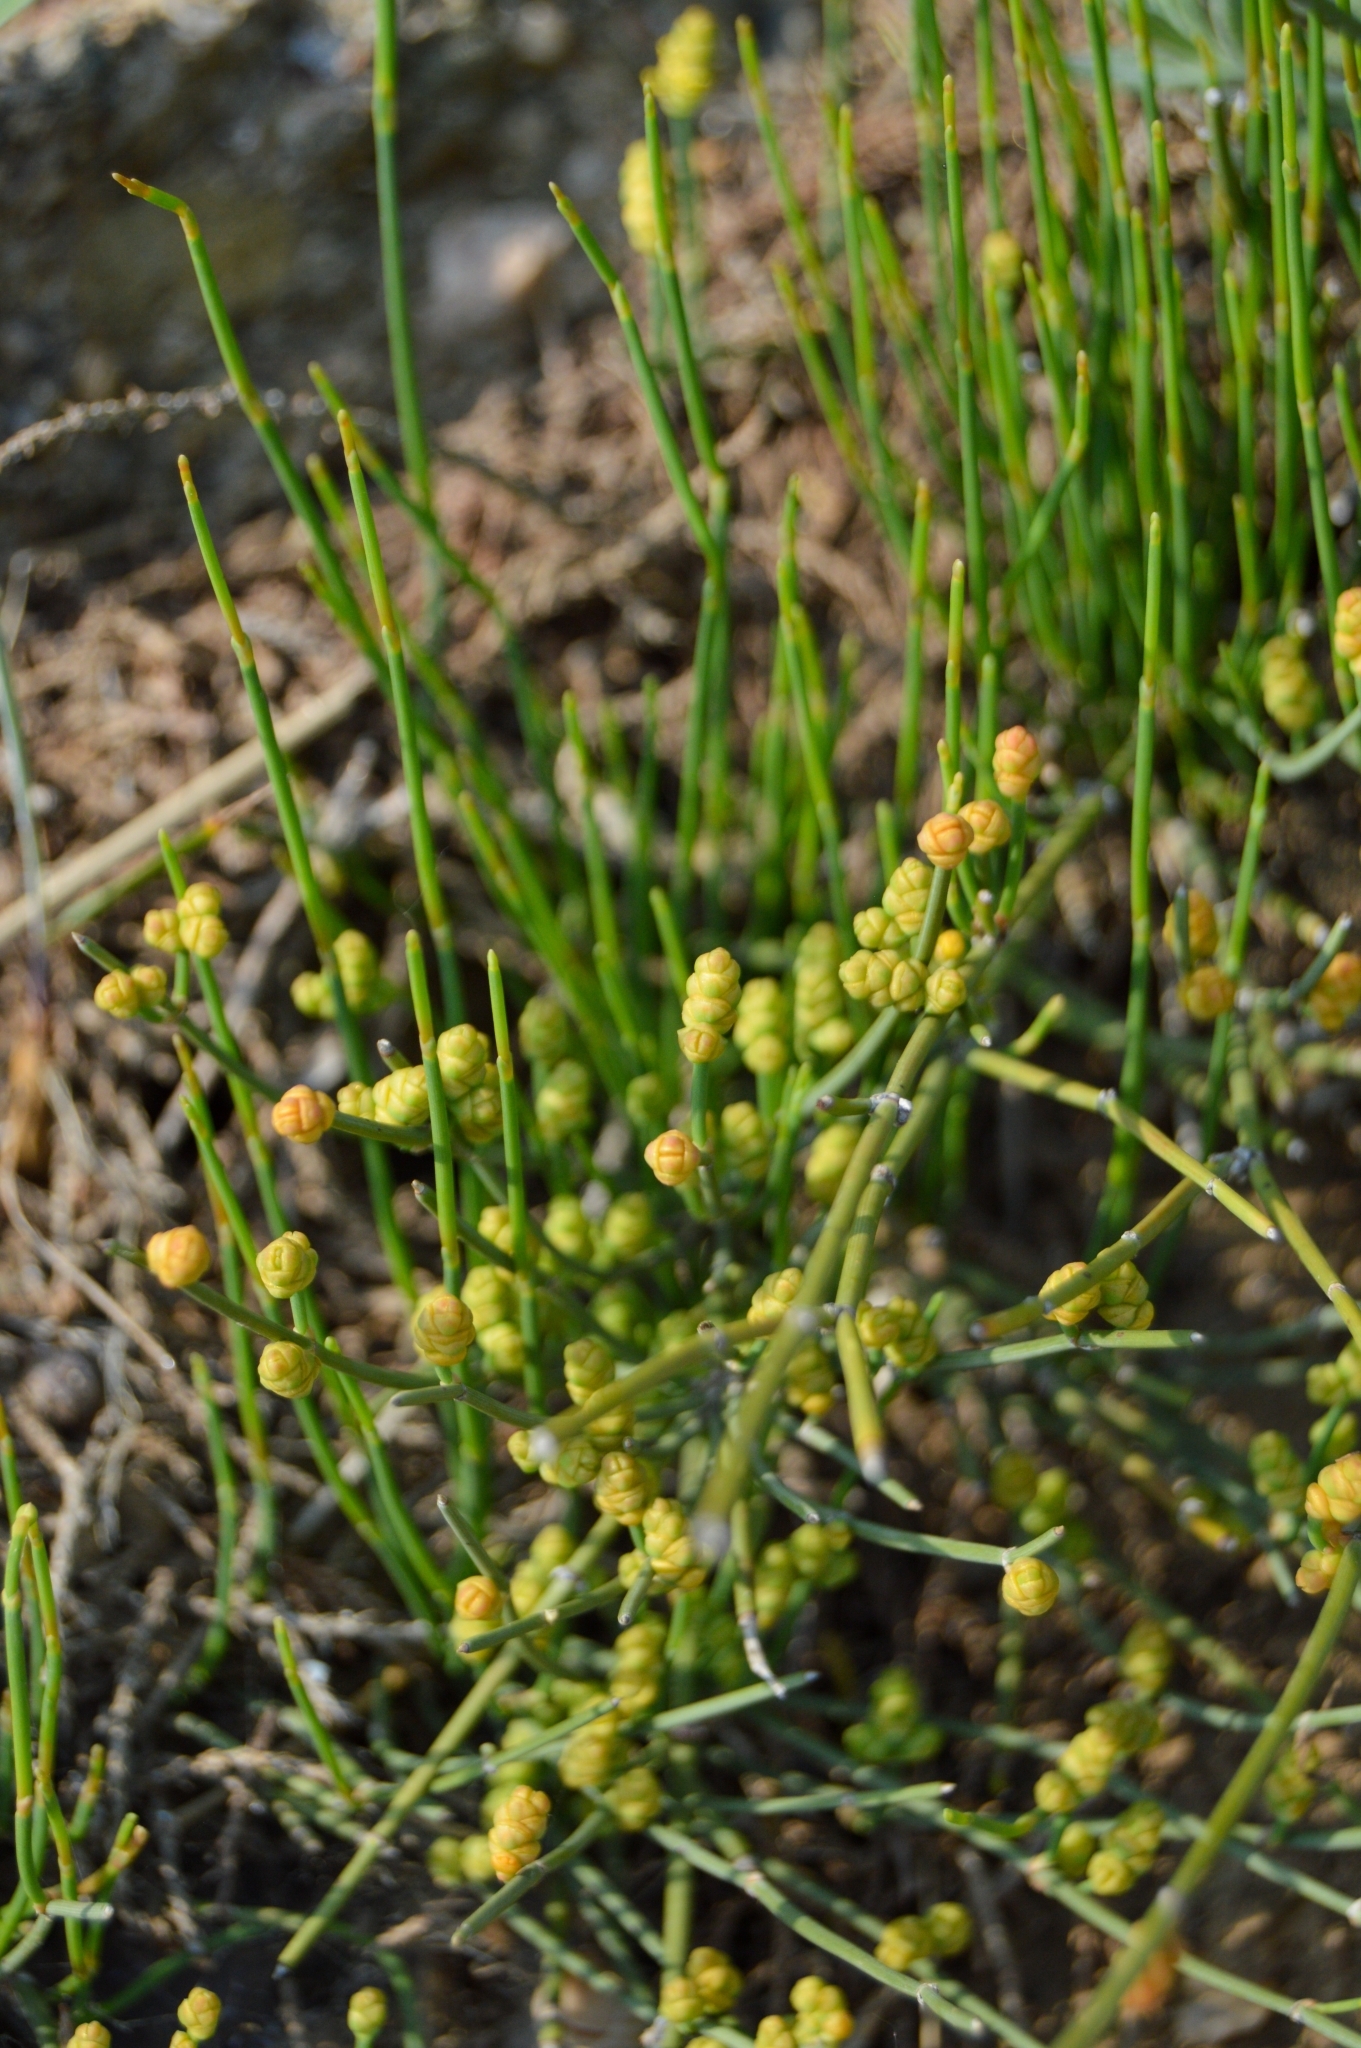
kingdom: Plantae
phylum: Tracheophyta
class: Gnetopsida
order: Ephedrales
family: Ephedraceae
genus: Ephedra
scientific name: Ephedra distachya
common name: Sea grape
